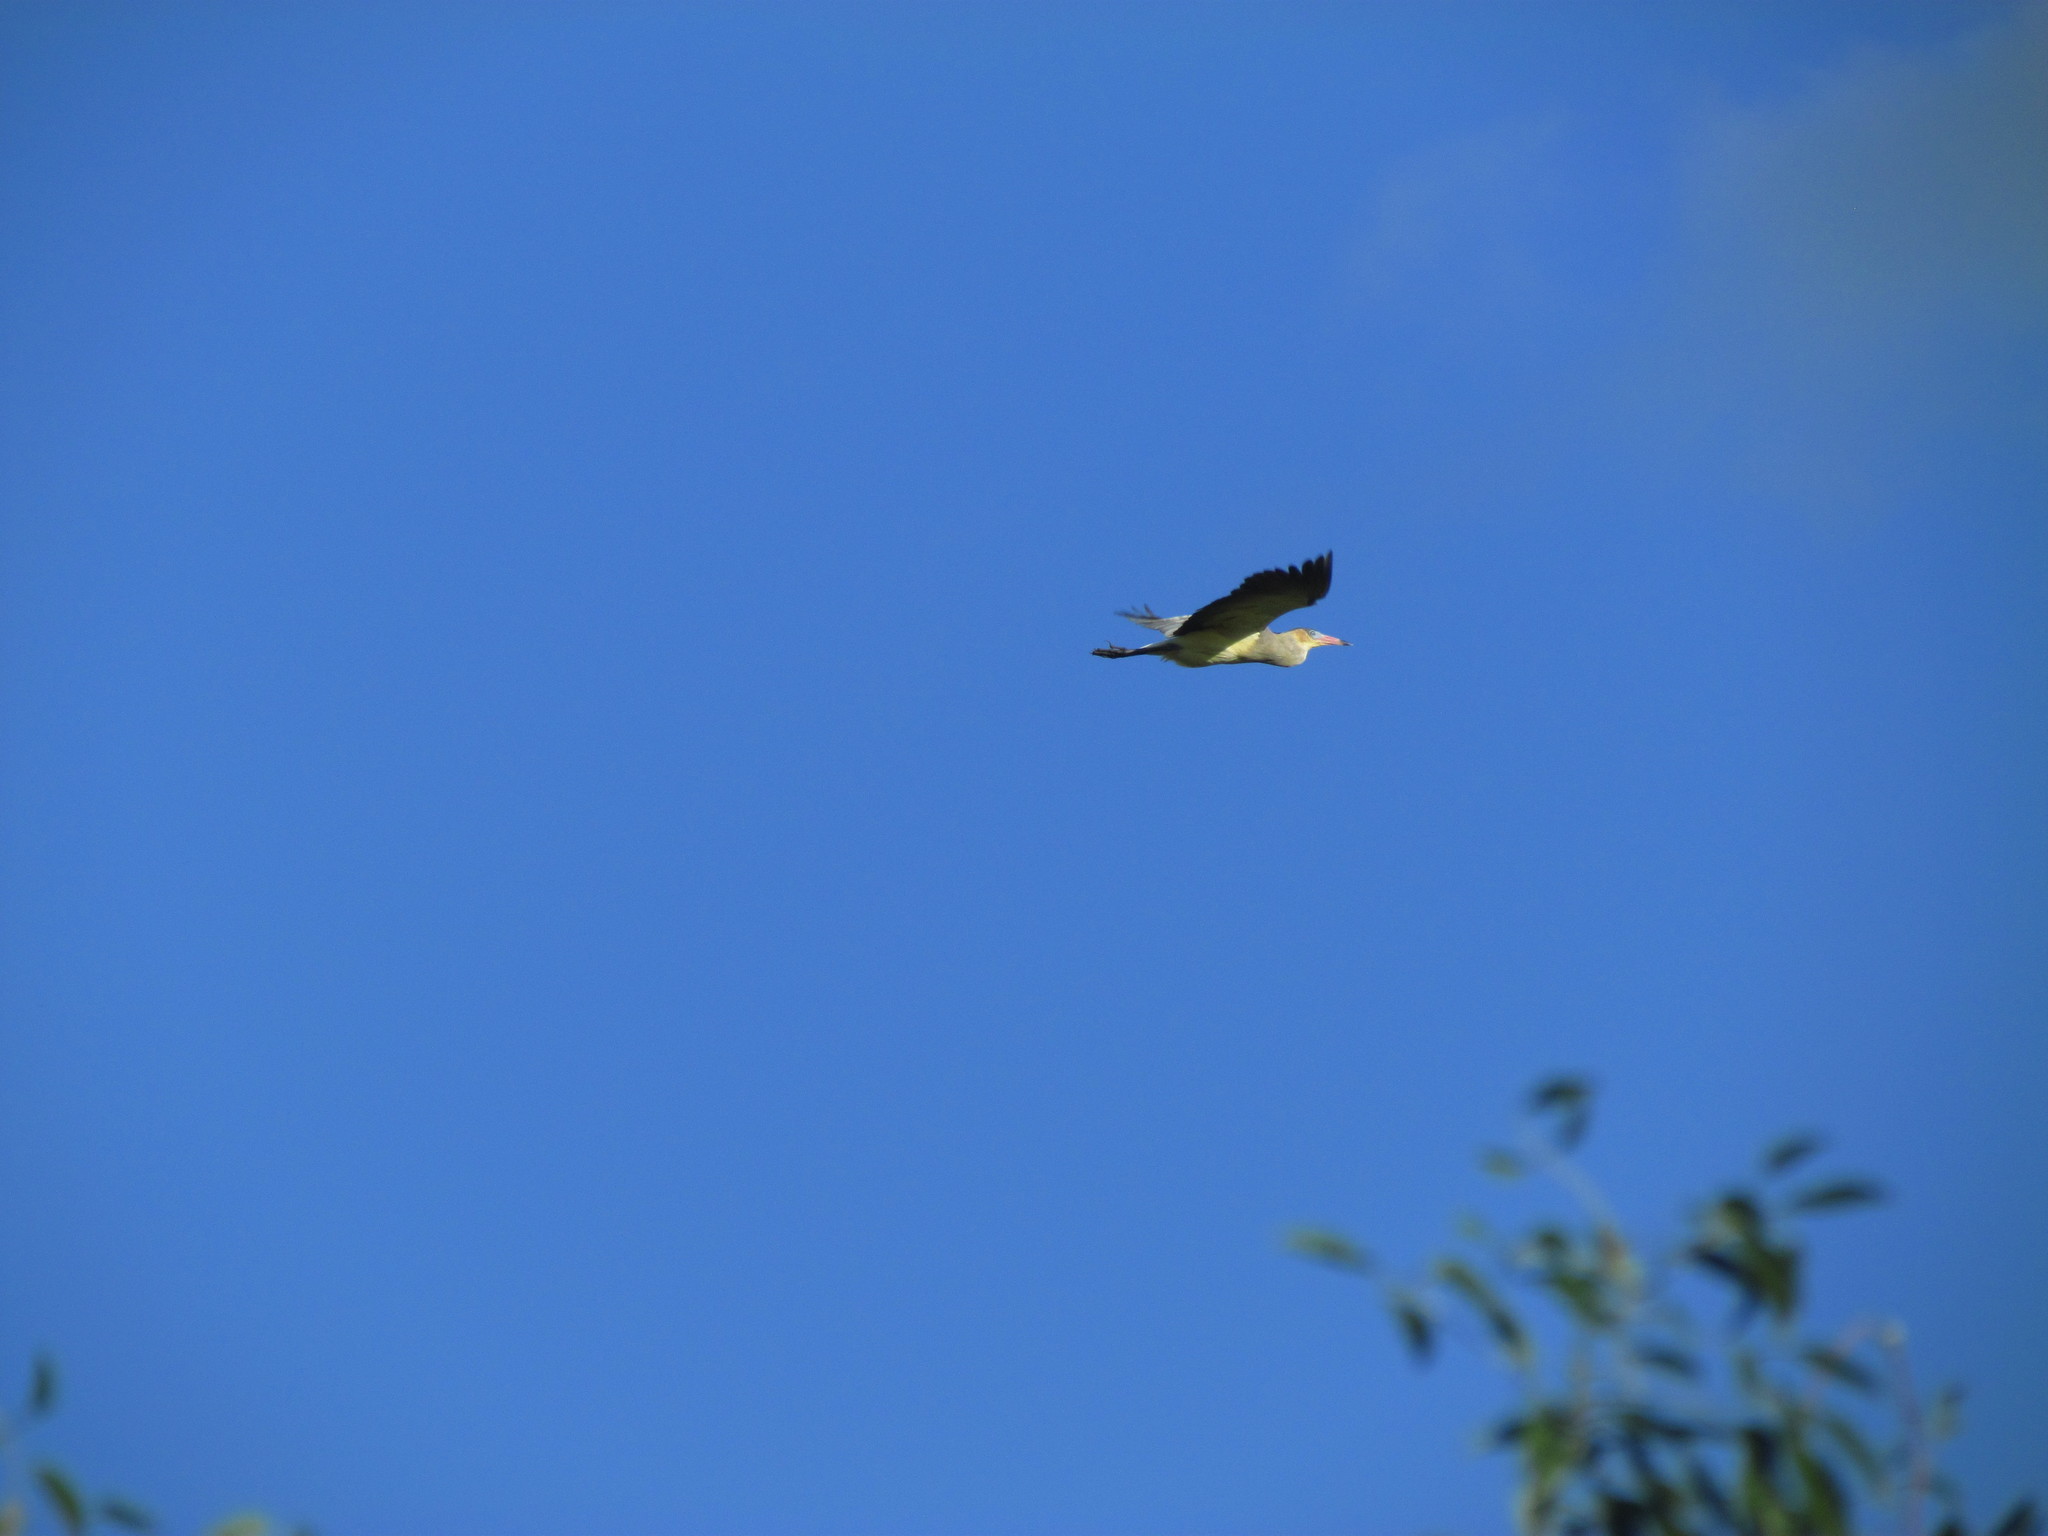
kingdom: Animalia
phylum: Chordata
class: Aves
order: Pelecaniformes
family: Ardeidae
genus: Syrigma
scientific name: Syrigma sibilatrix
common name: Whistling heron
